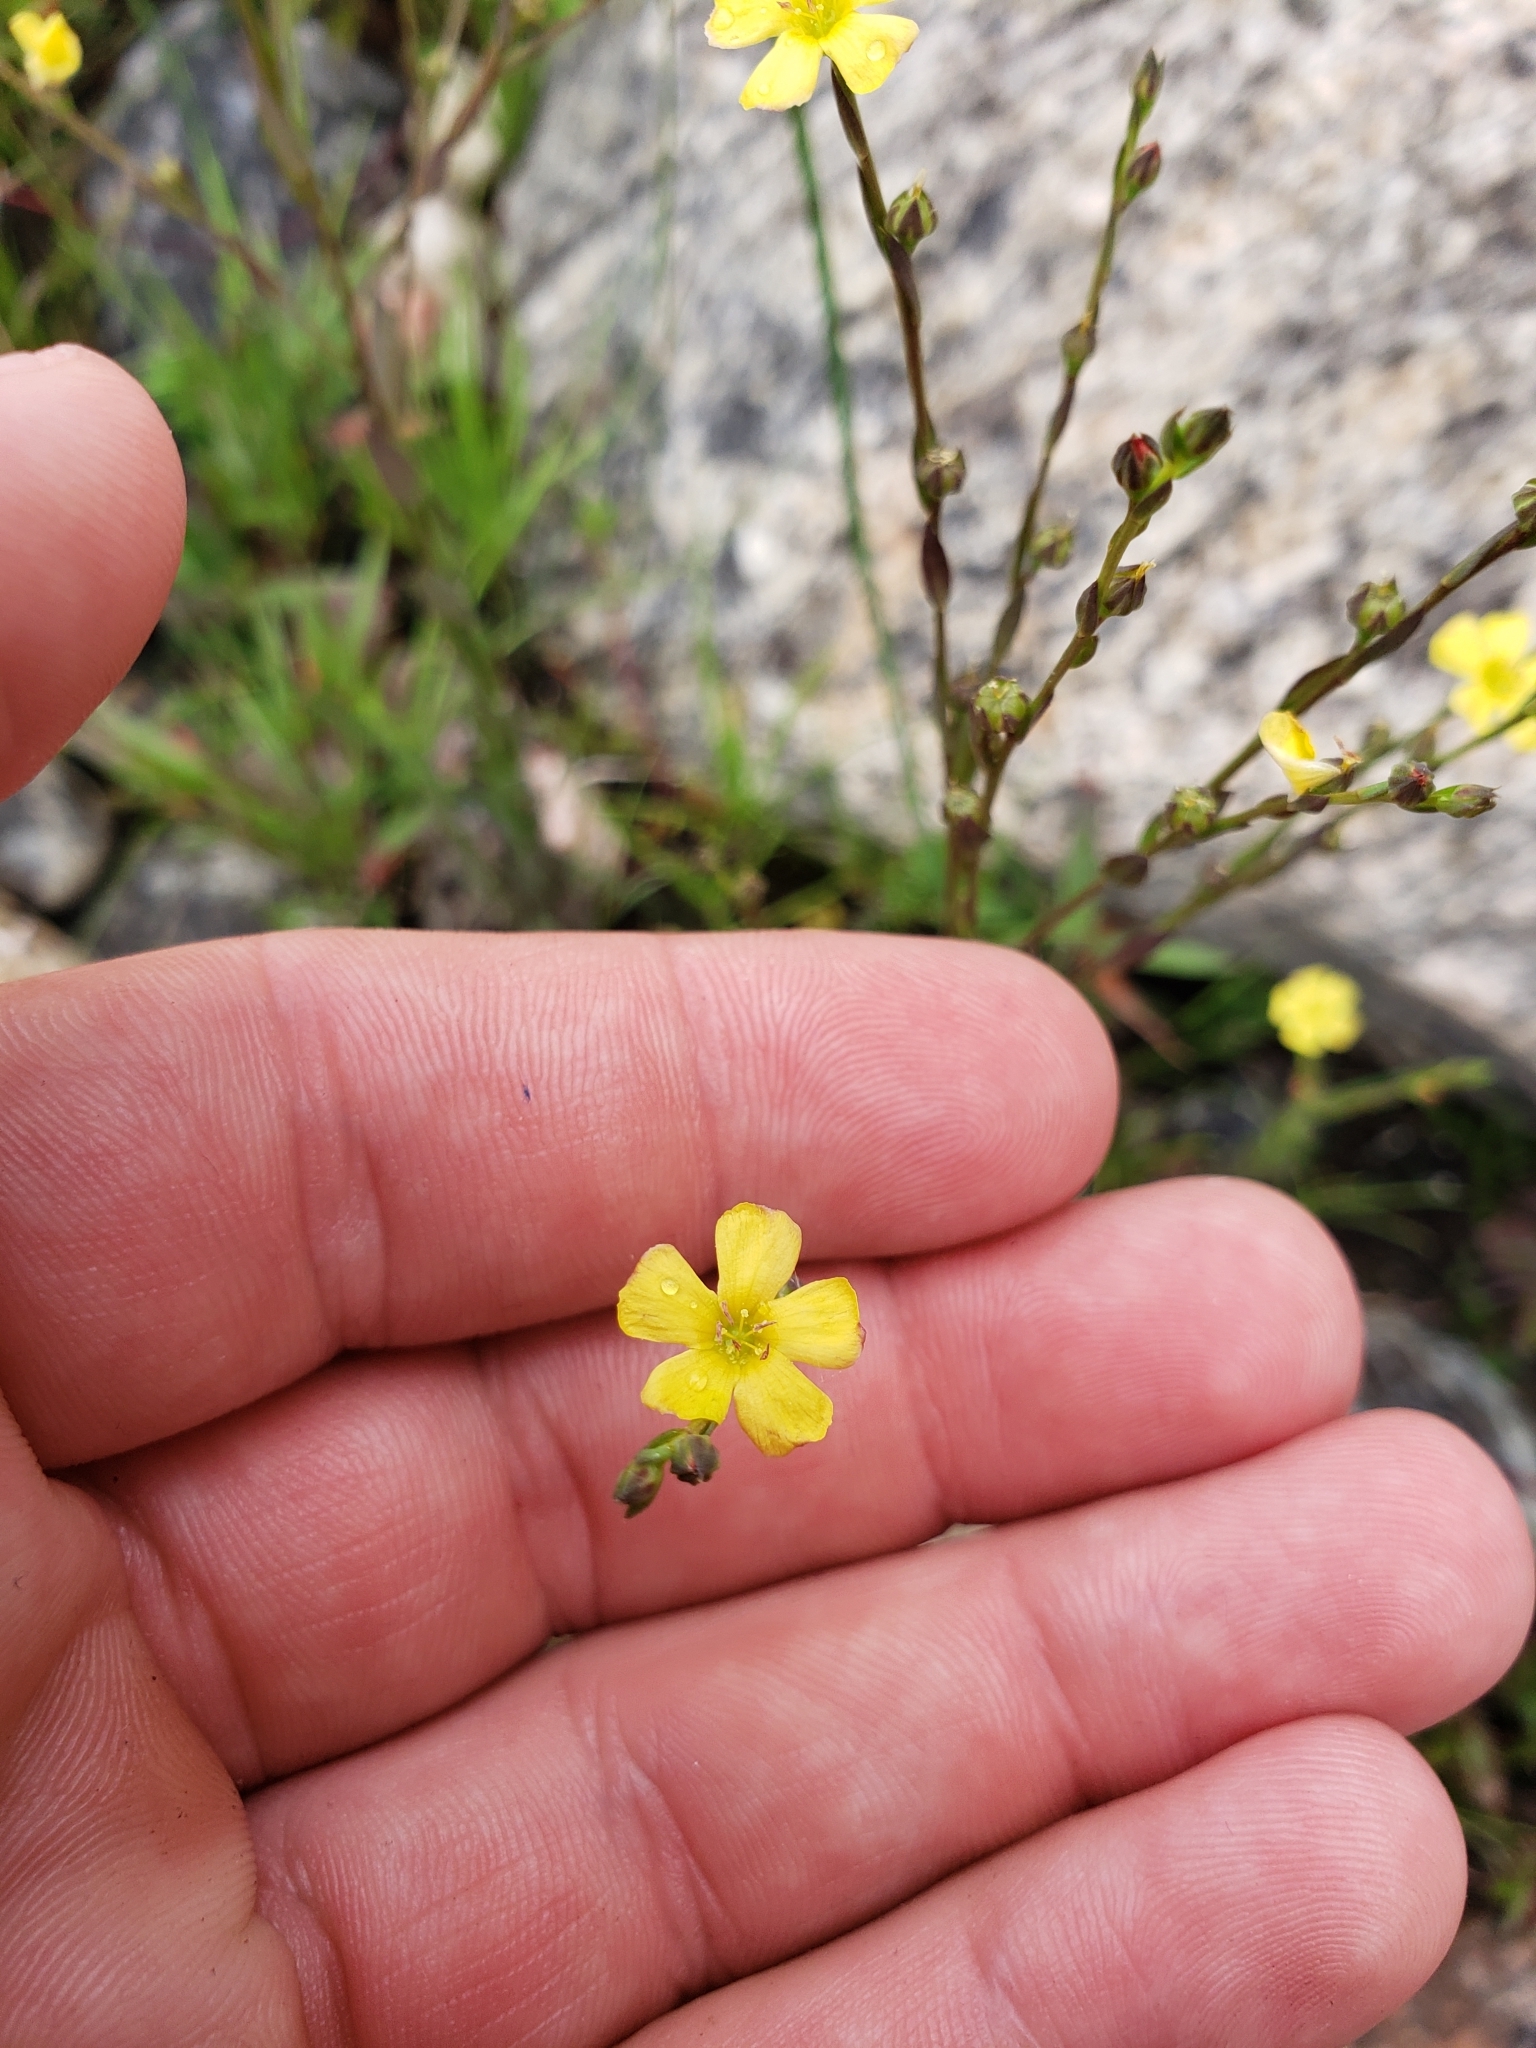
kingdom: Plantae
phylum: Tracheophyta
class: Magnoliopsida
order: Malpighiales
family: Linaceae
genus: Linum
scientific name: Linum medium
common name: Stiff yellow flax
